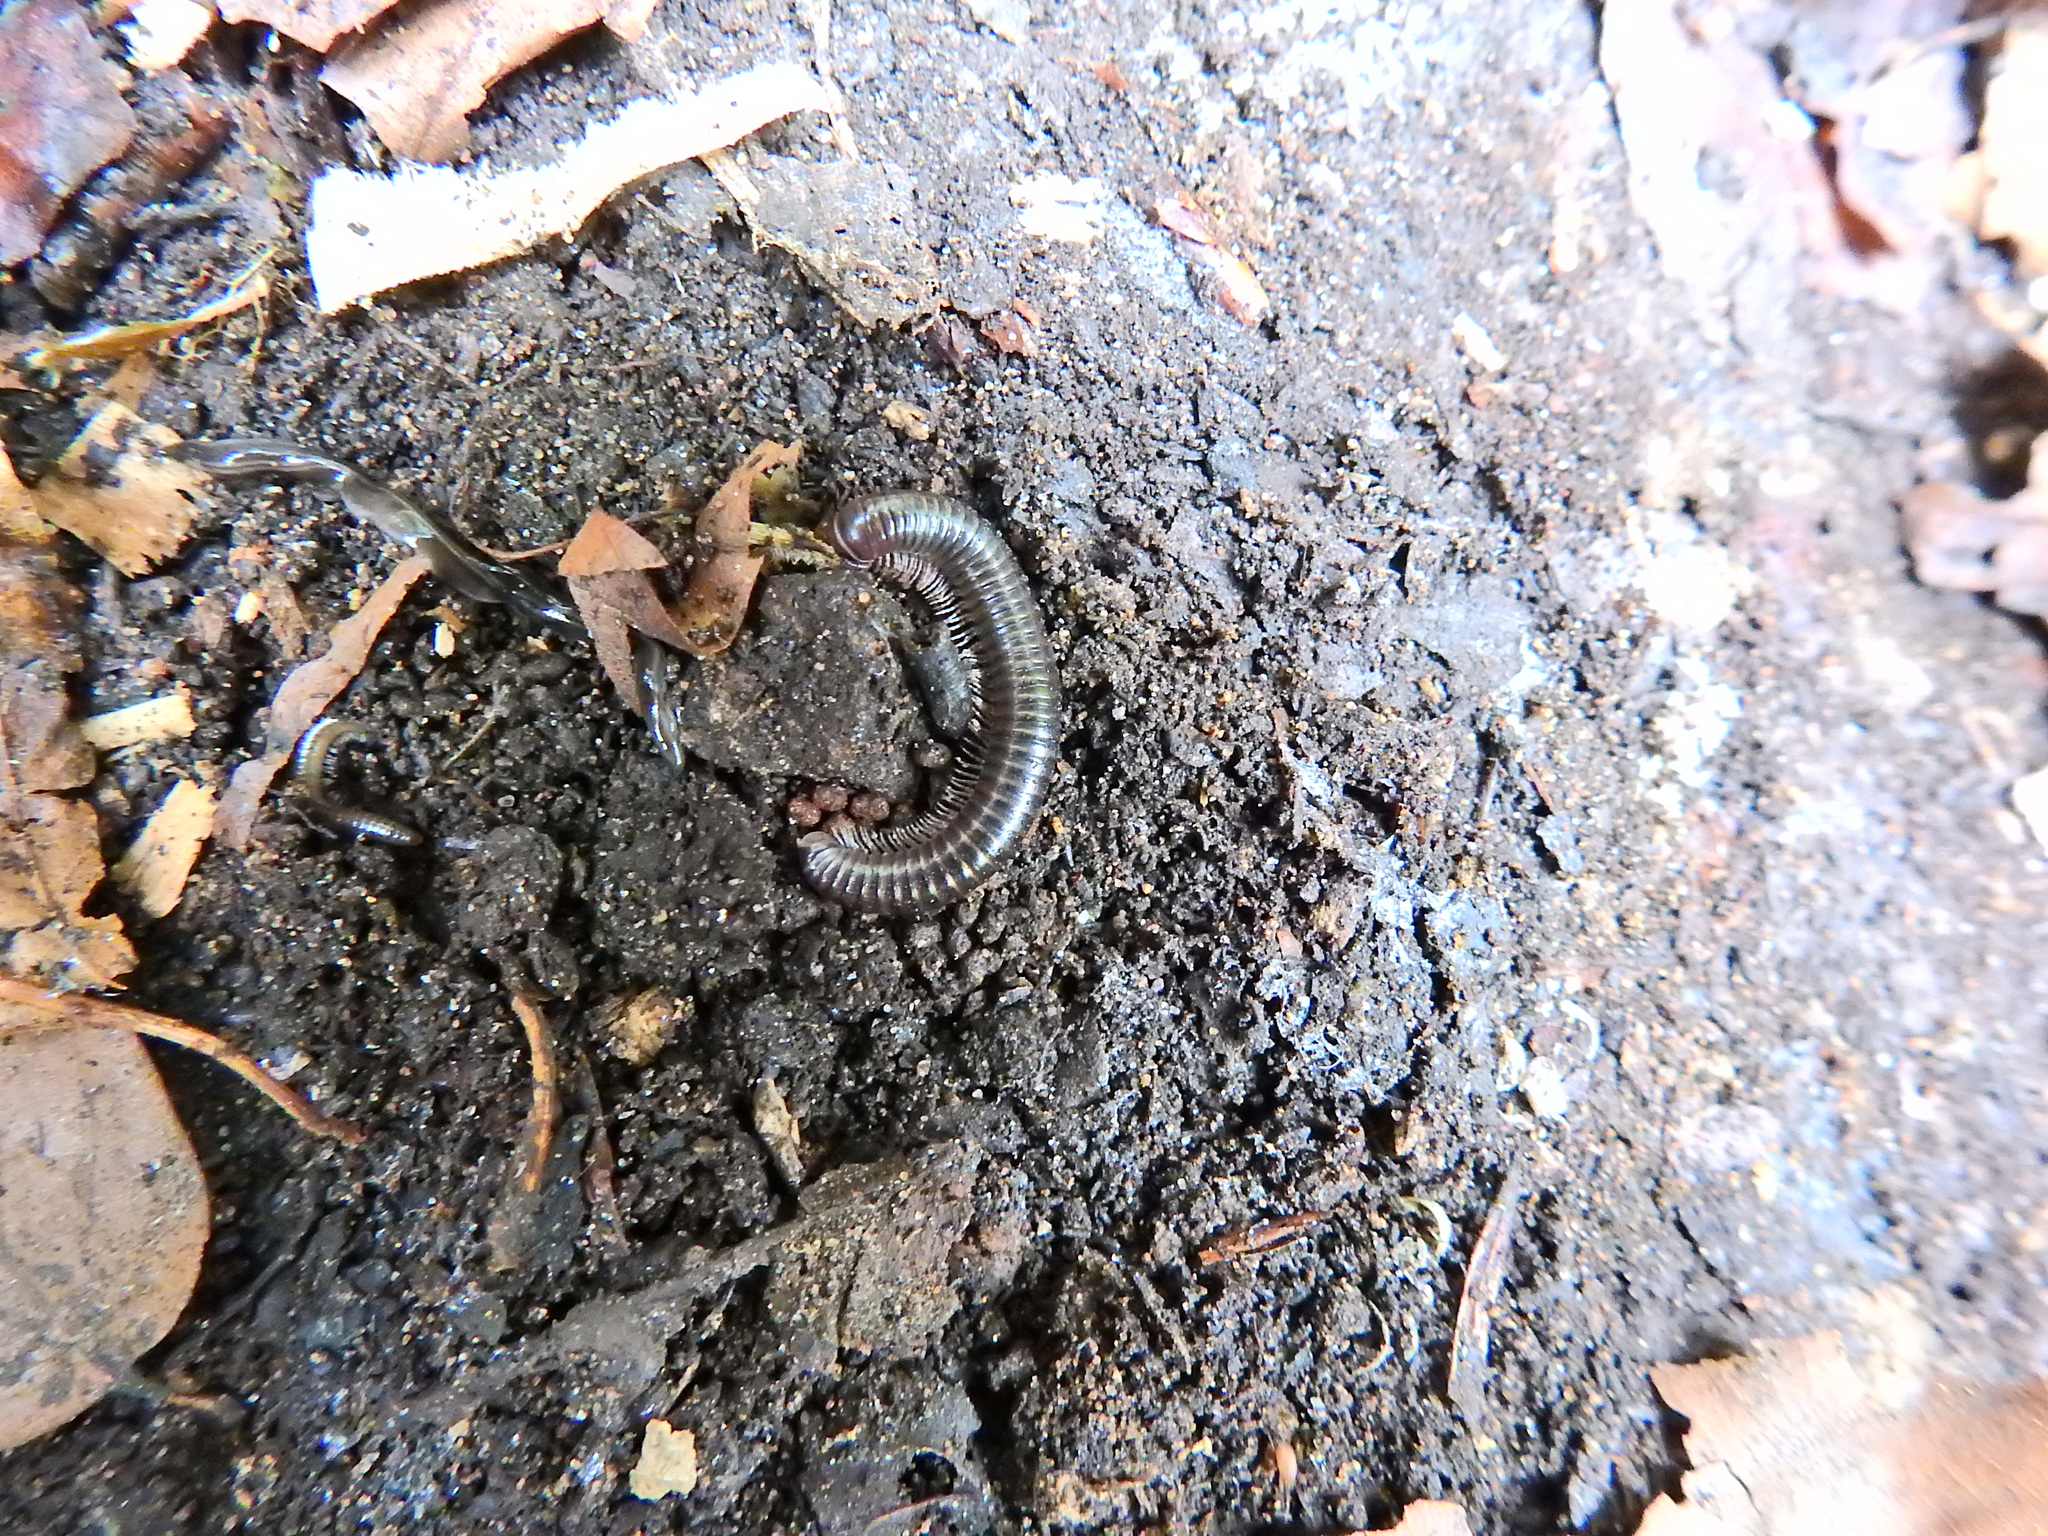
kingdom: Animalia
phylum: Arthropoda
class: Diplopoda
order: Julida
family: Julidae
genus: Cylindroiulus
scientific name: Cylindroiulus londinensis
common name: Black millipede
